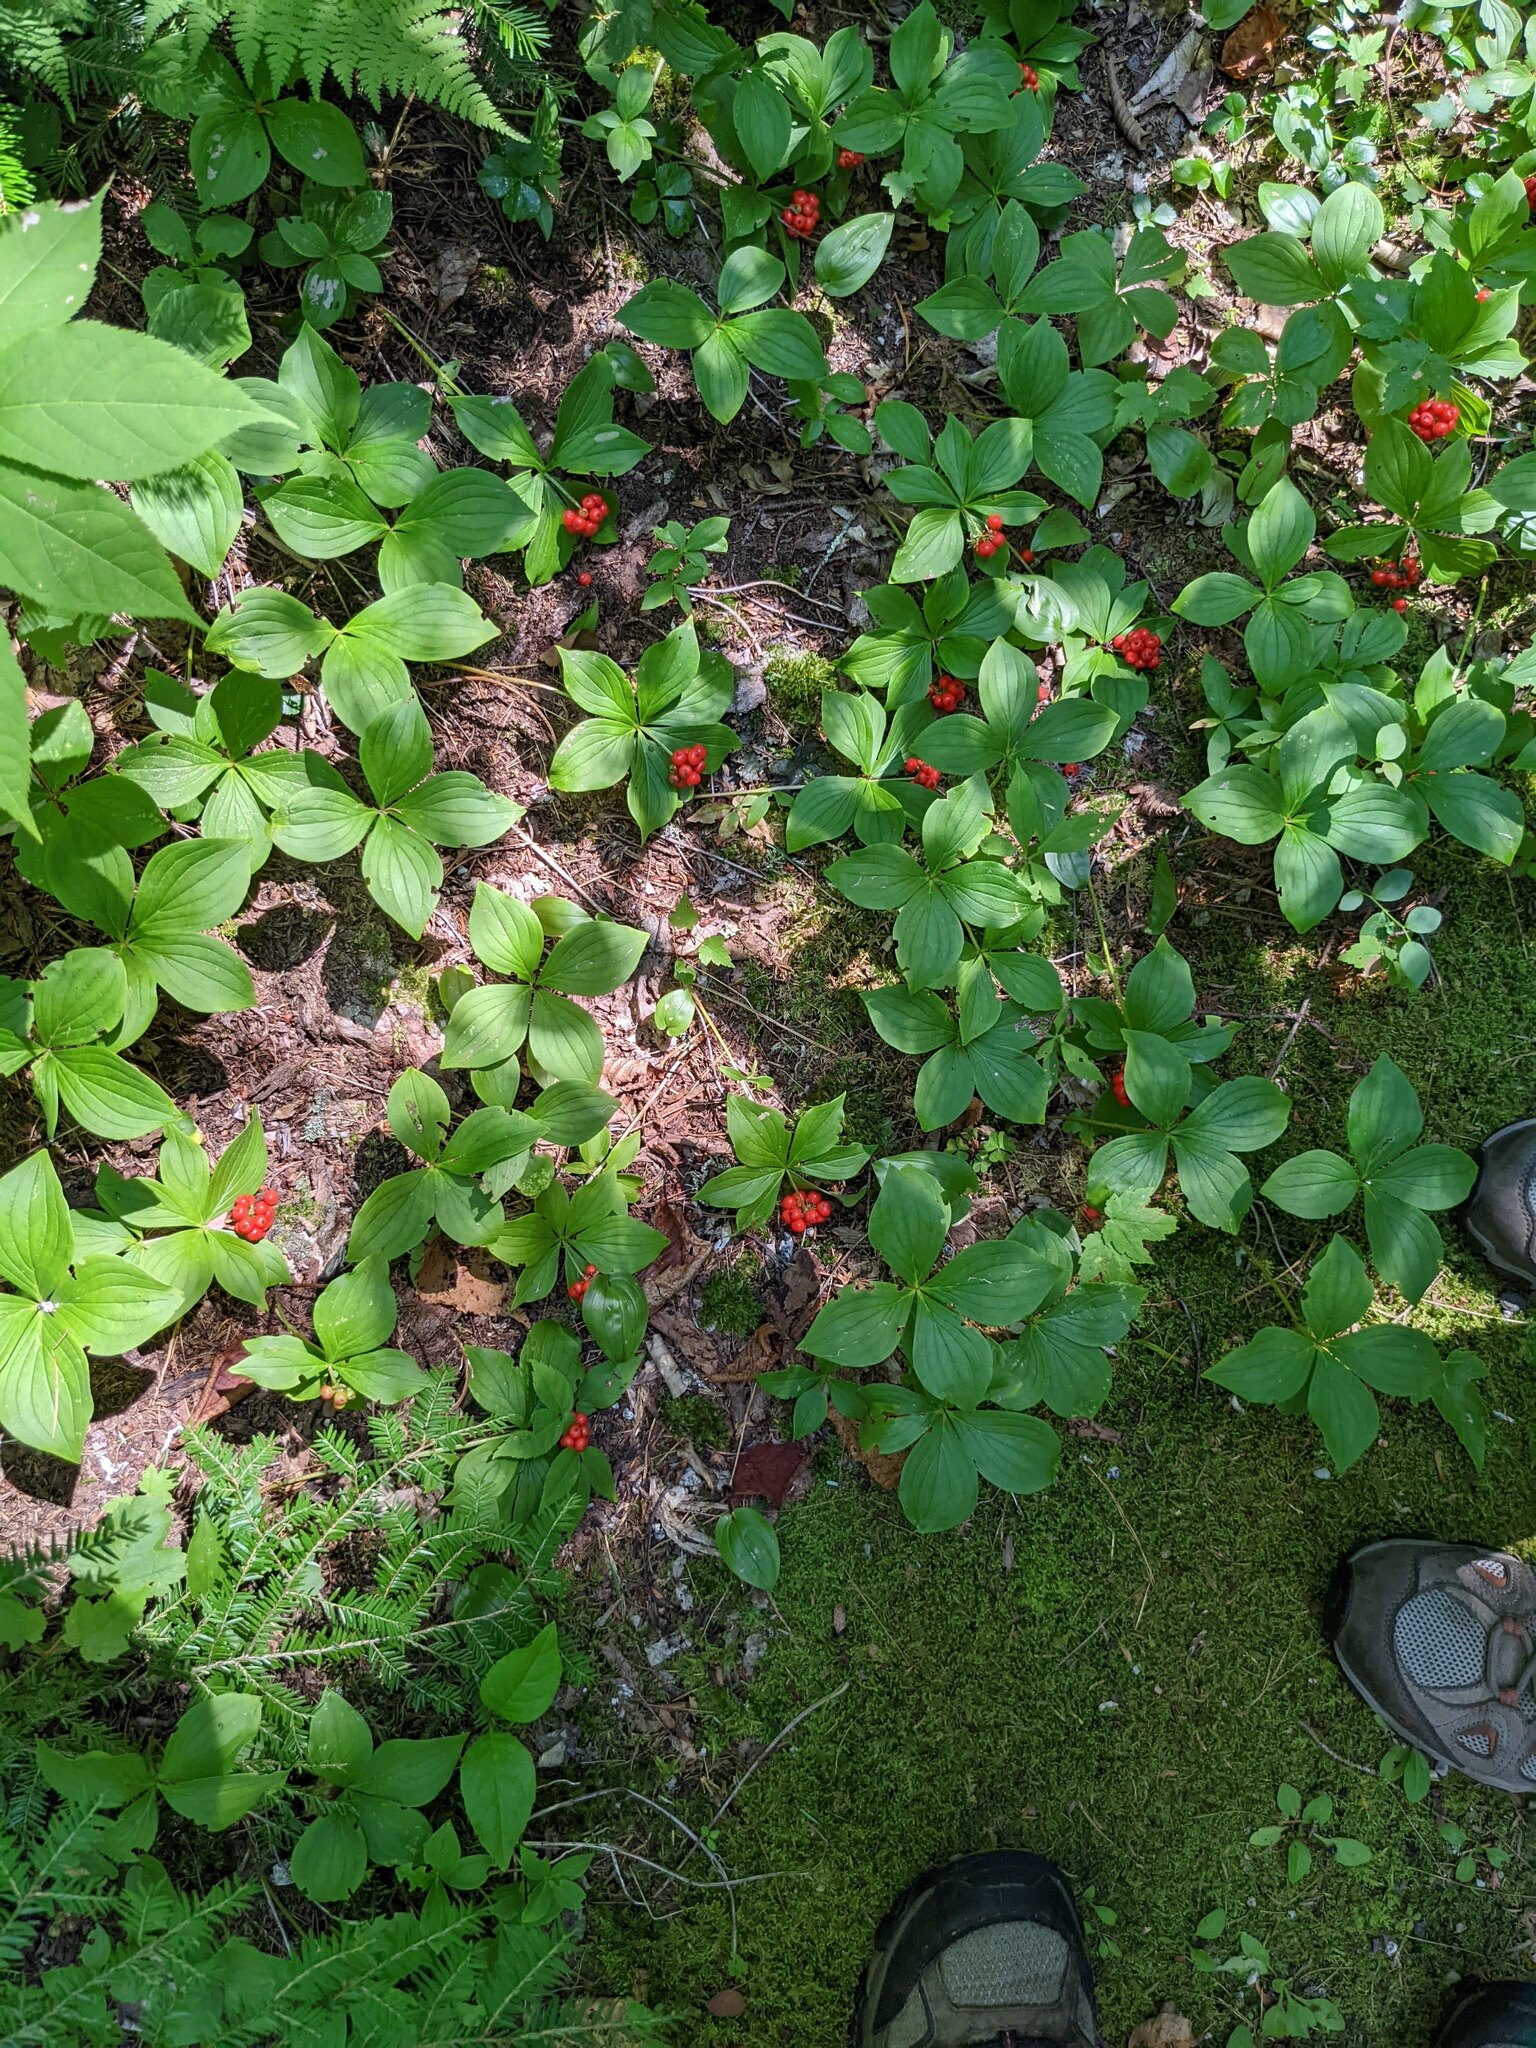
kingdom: Plantae
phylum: Tracheophyta
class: Magnoliopsida
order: Cornales
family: Cornaceae
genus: Cornus
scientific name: Cornus canadensis
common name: Creeping dogwood
